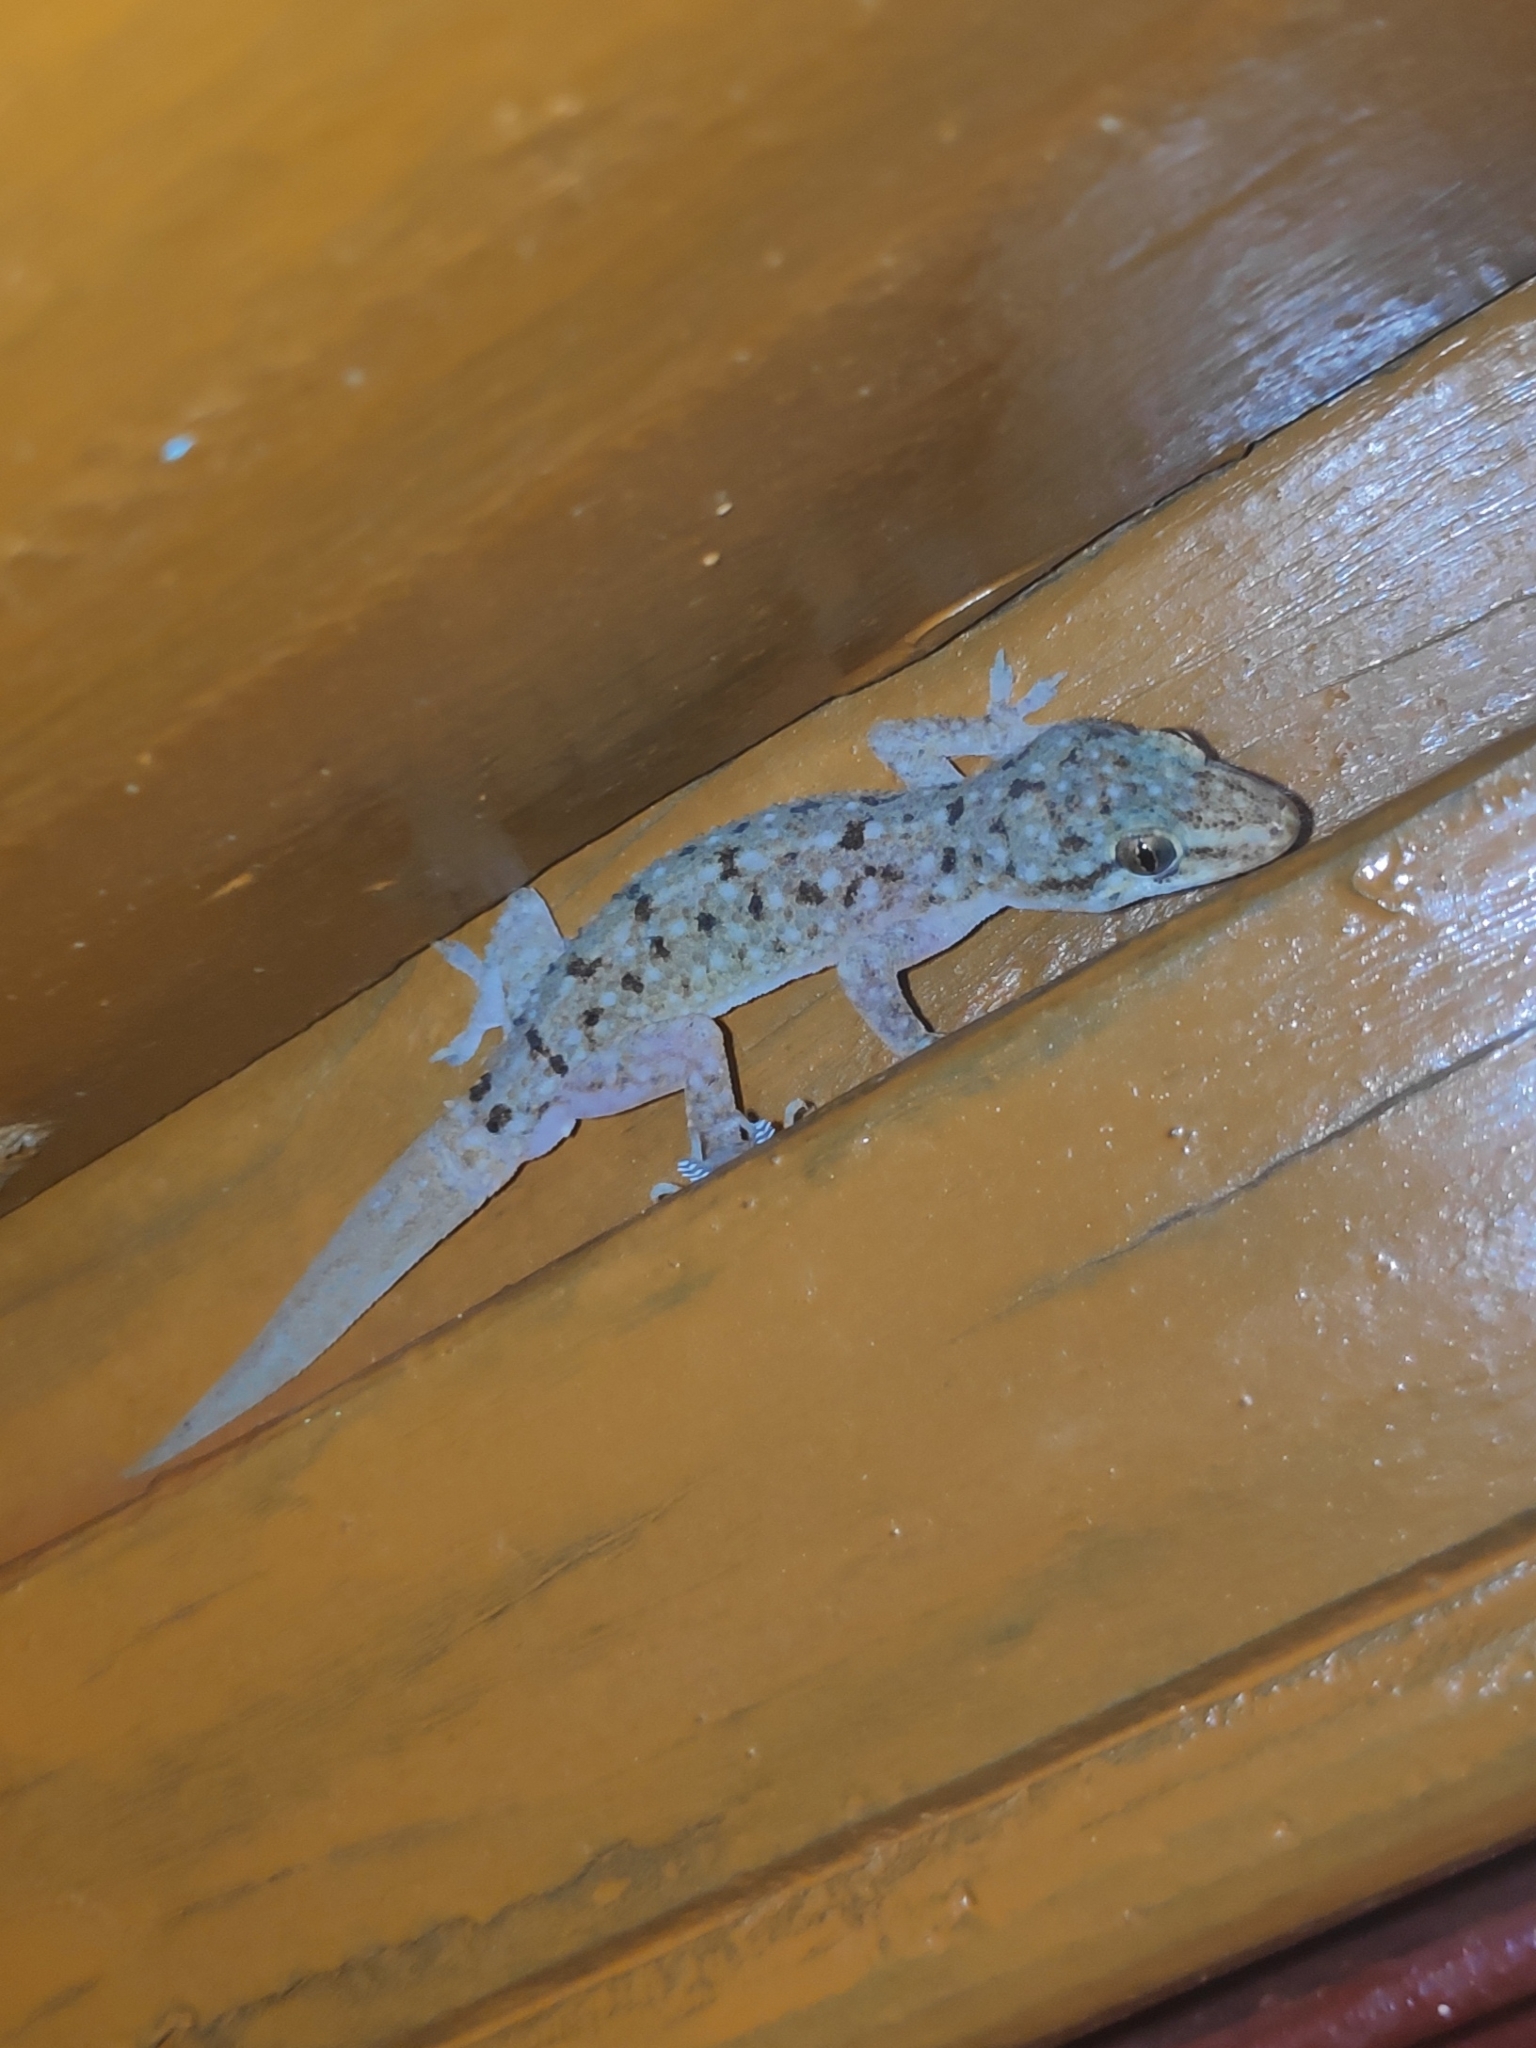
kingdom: Animalia
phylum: Chordata
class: Squamata
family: Gekkonidae
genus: Hemidactylus
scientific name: Hemidactylus brookii
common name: Brook's house gecko
